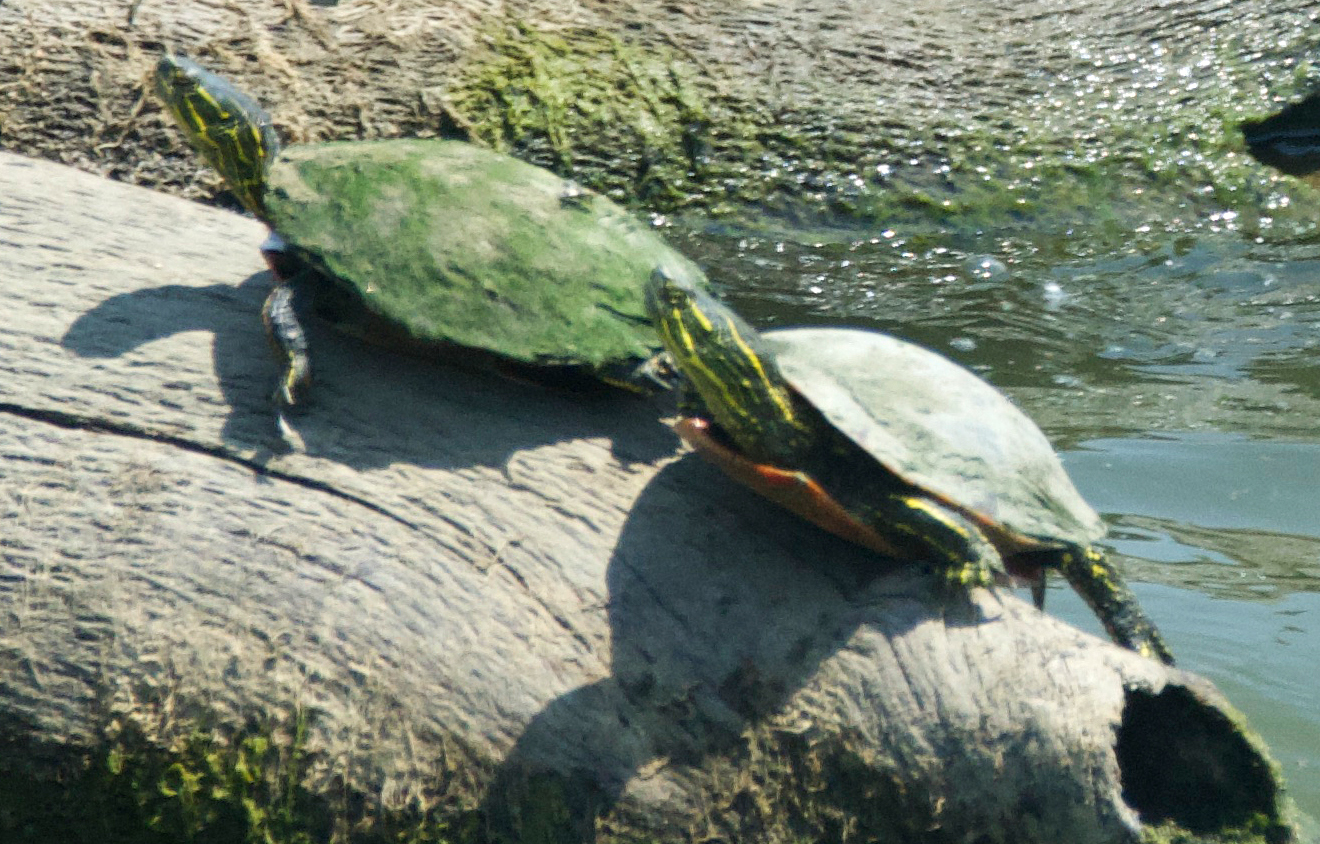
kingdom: Animalia
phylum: Chordata
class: Testudines
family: Emydidae
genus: Chrysemys
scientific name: Chrysemys picta
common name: Painted turtle
